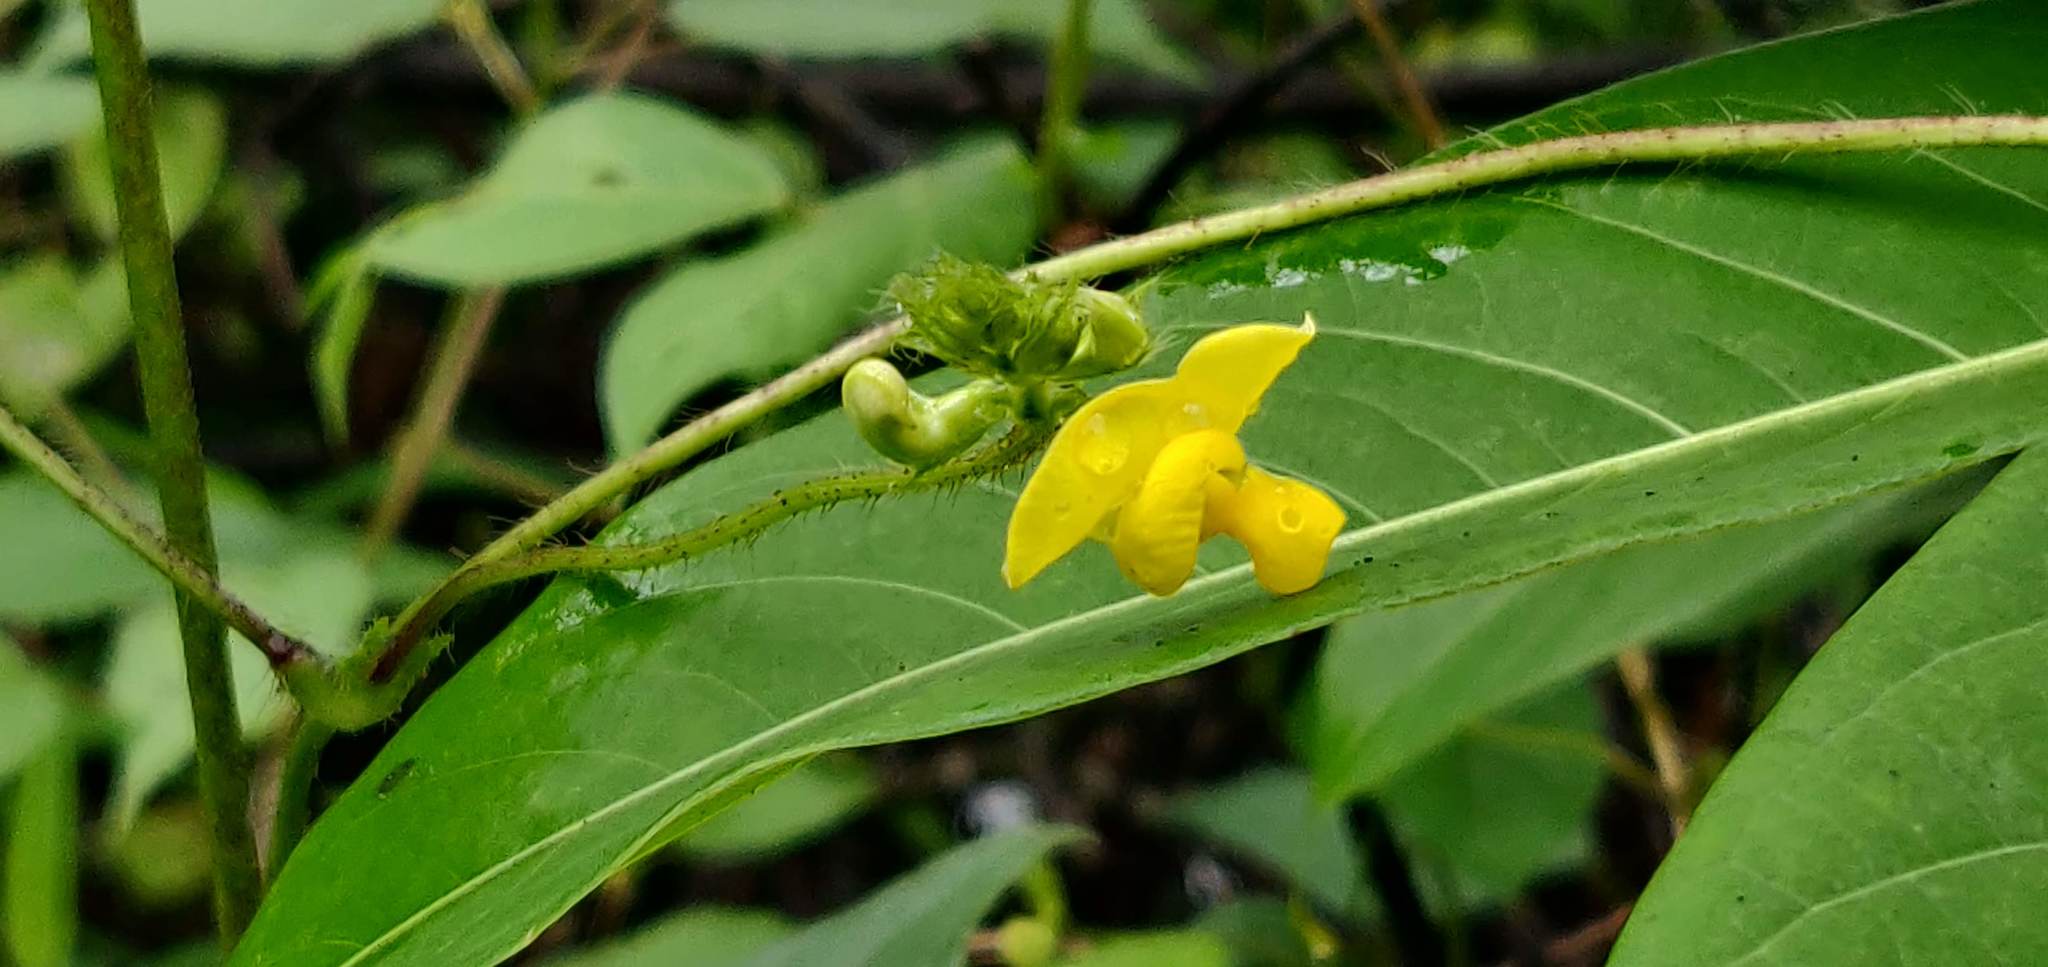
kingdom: Plantae
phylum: Tracheophyta
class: Magnoliopsida
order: Fabales
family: Fabaceae
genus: Vigna
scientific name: Vigna mungo
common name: Black gram
